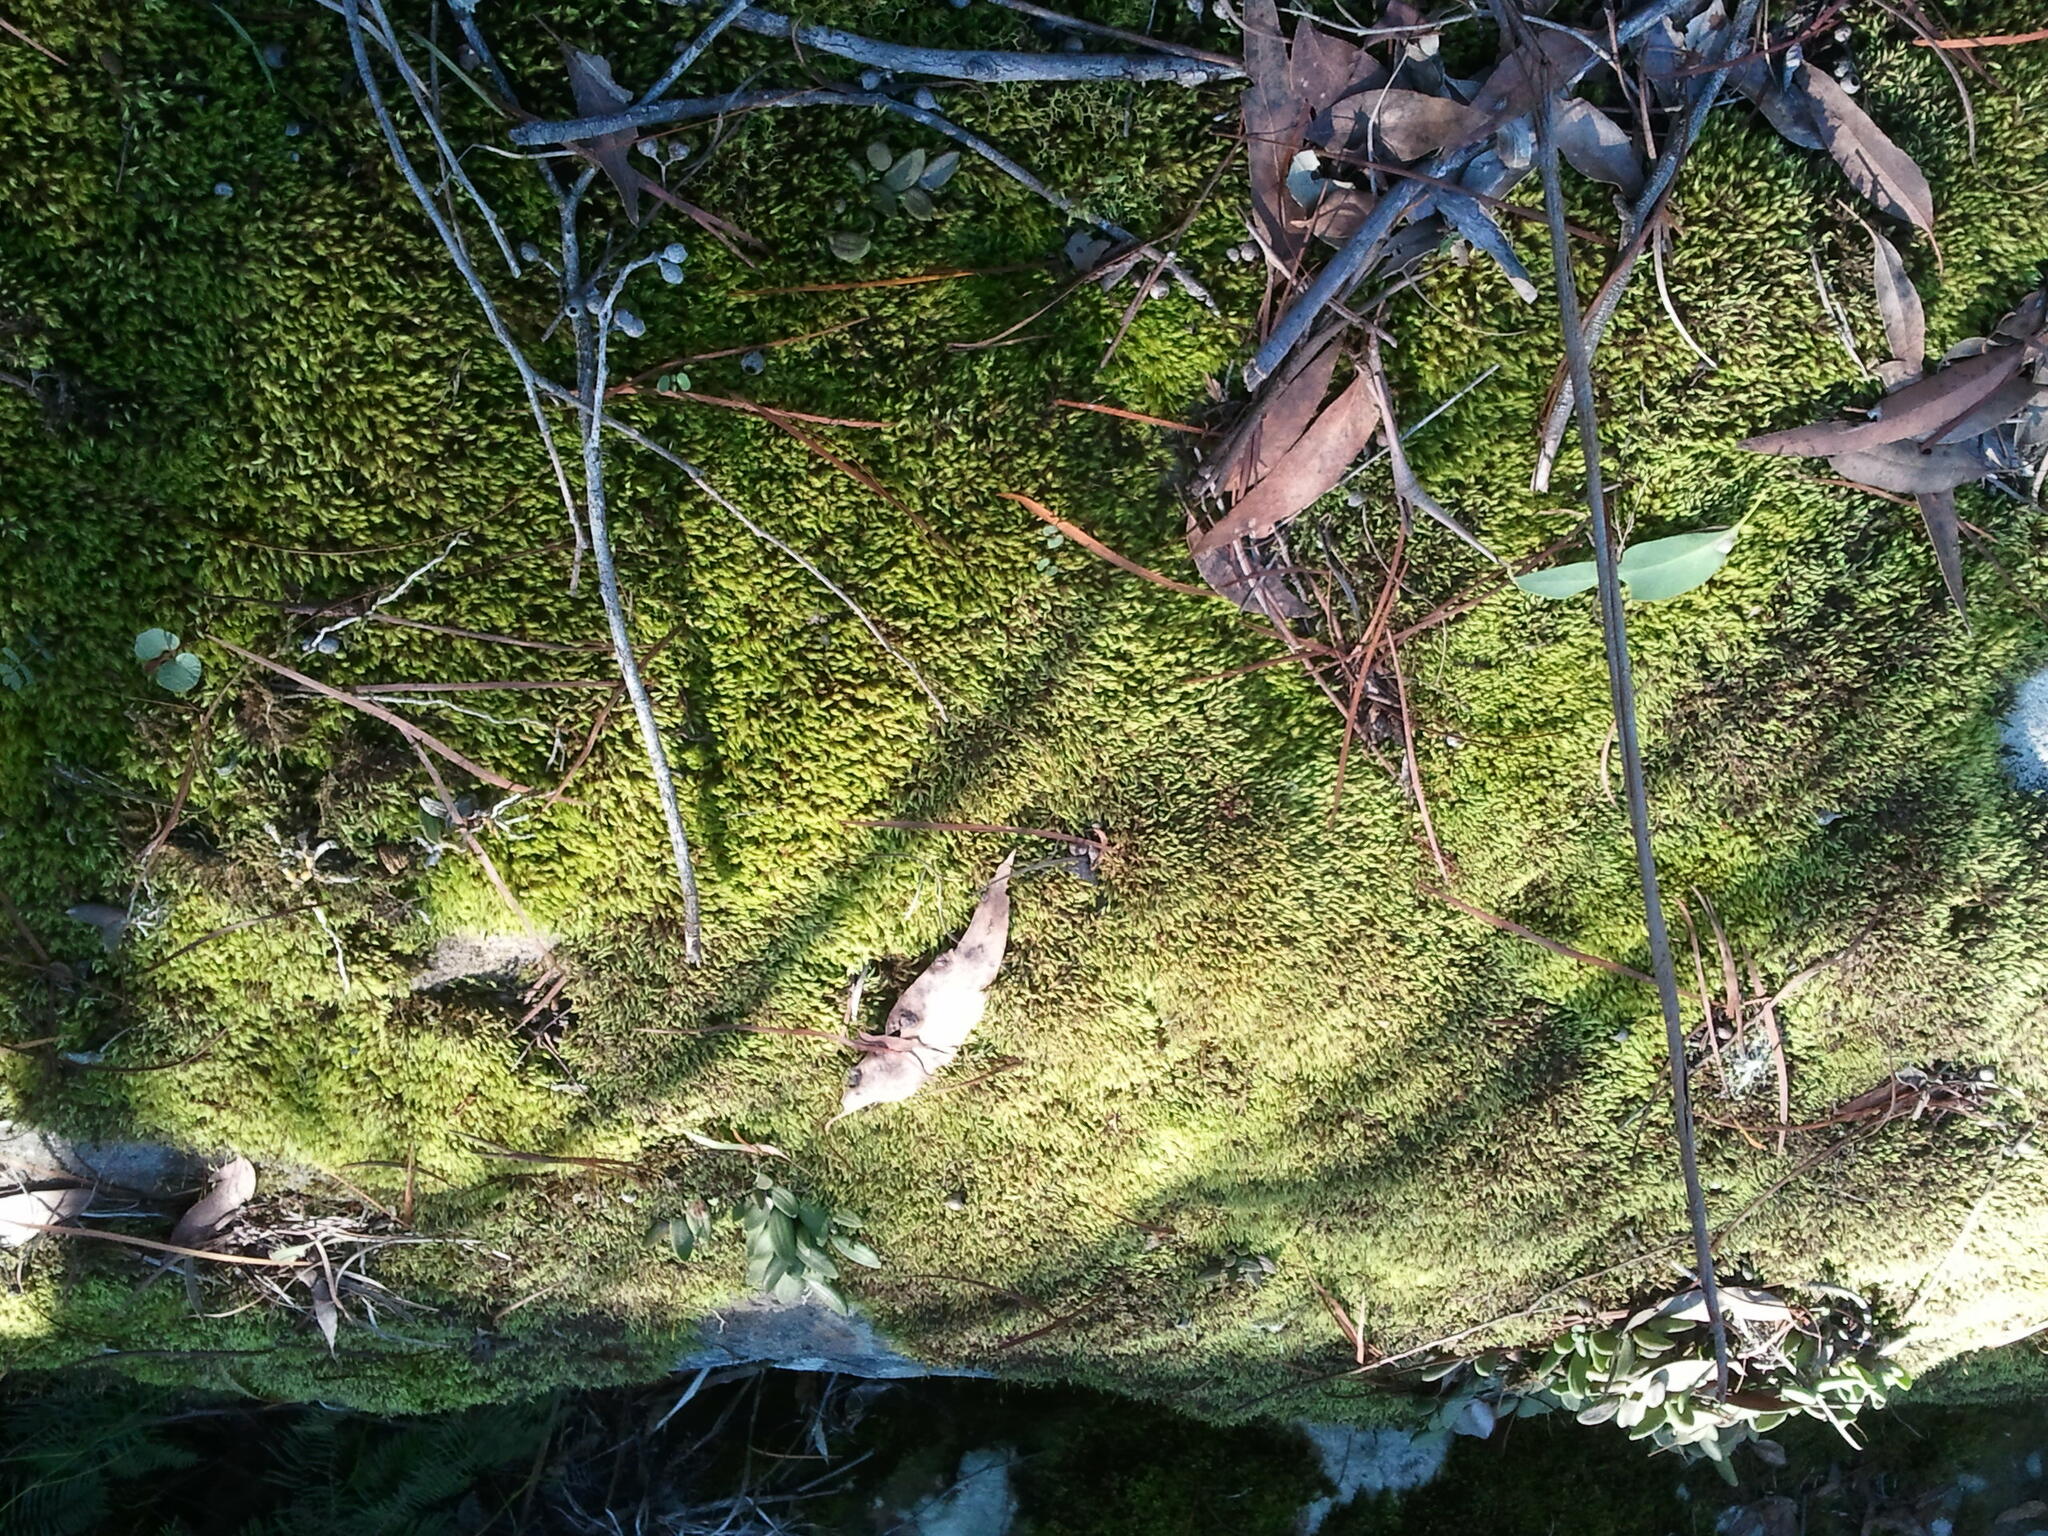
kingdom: Plantae
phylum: Tracheophyta
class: Liliopsida
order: Asparagales
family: Orchidaceae
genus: Dendrobium
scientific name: Dendrobium linguiforme
